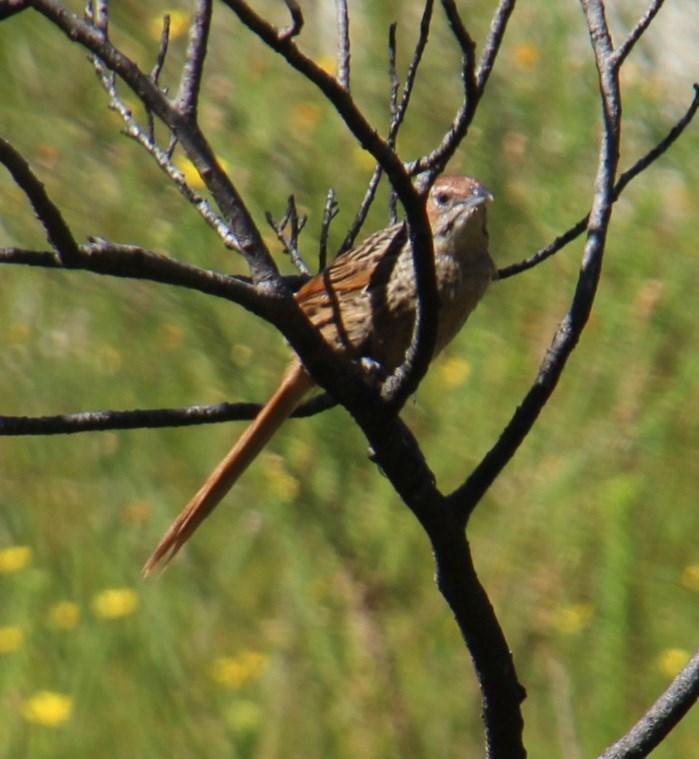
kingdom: Animalia
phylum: Chordata
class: Aves
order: Passeriformes
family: Macrosphenidae
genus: Sphenoeacus
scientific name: Sphenoeacus afer
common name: Cape grassbird
